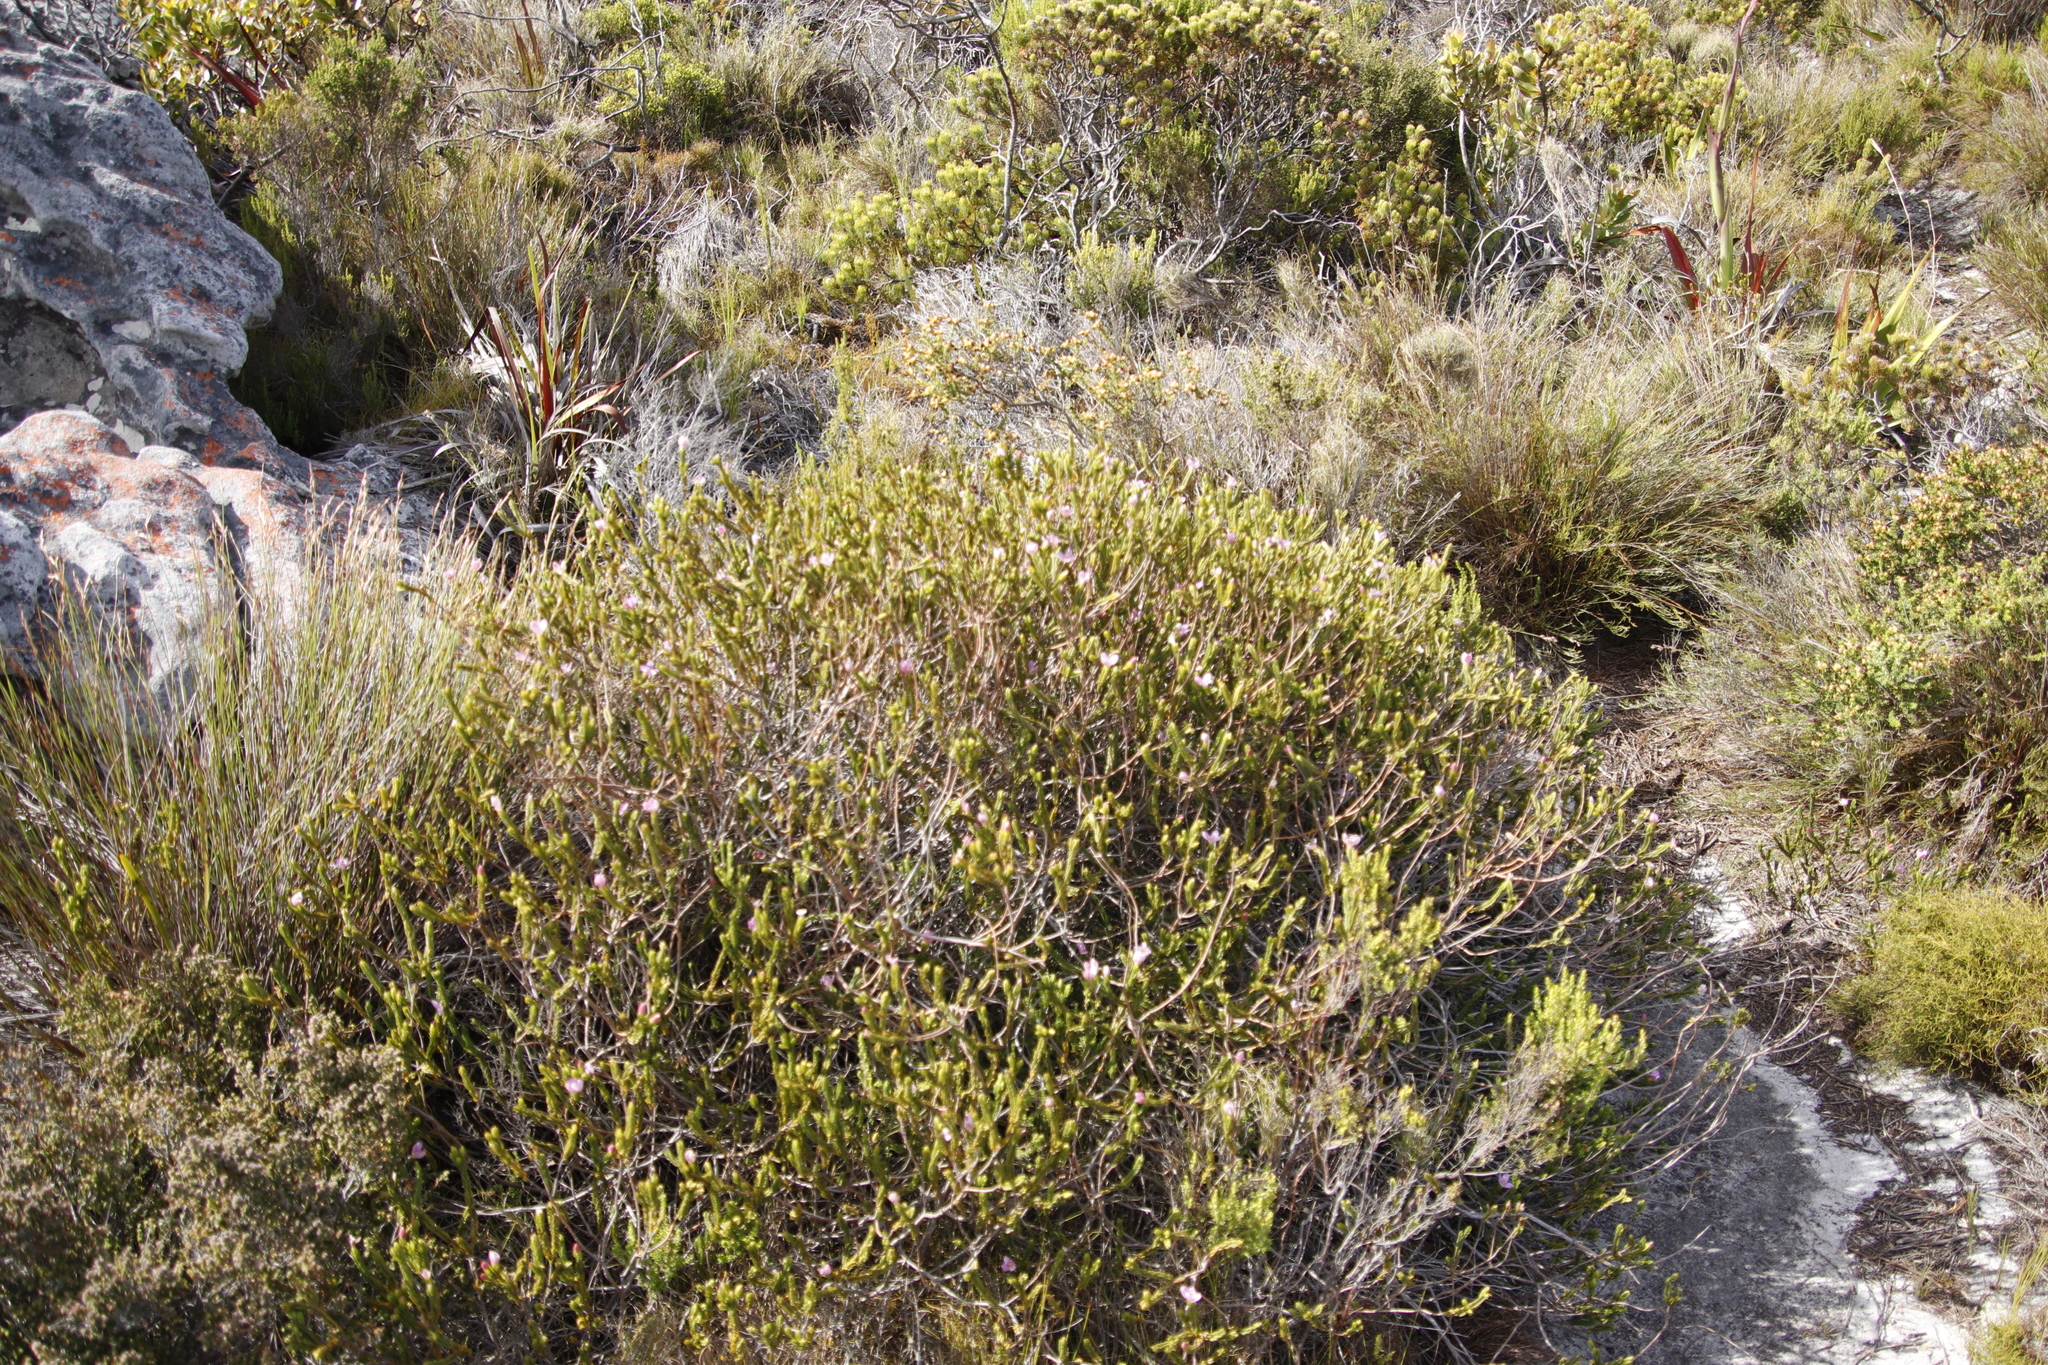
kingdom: Plantae
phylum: Tracheophyta
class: Magnoliopsida
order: Malvales
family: Thymelaeaceae
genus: Lachnaea
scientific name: Lachnaea grandiflora
